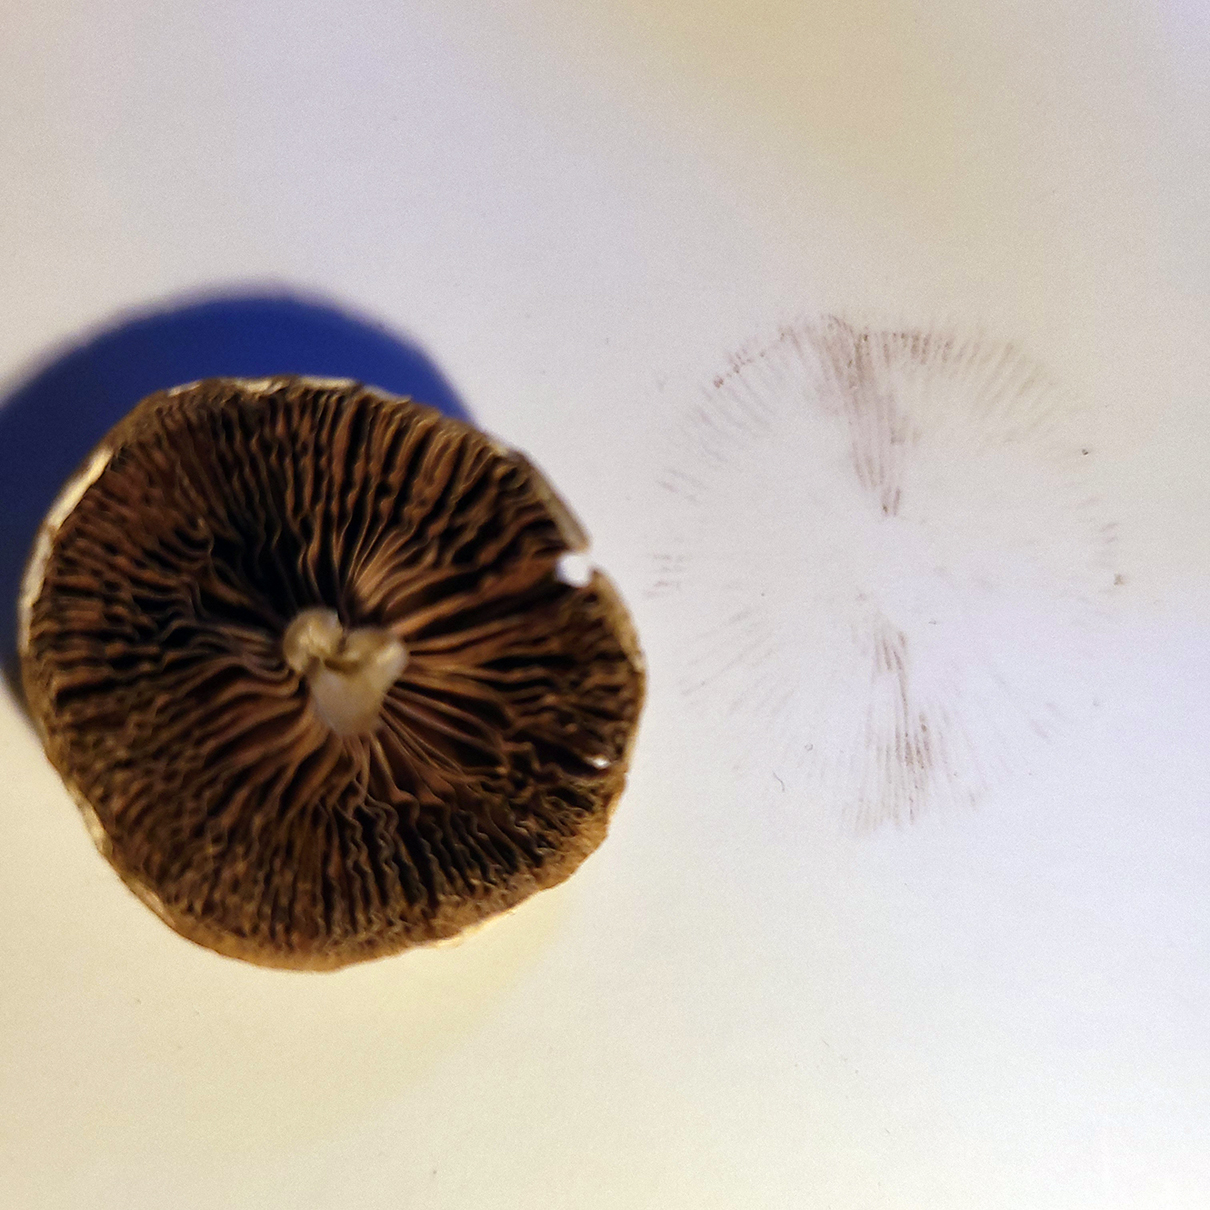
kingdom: Fungi
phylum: Basidiomycota
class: Agaricomycetes
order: Agaricales
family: Psathyrellaceae
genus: Candolleomyces
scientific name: Candolleomyces candolleanus
